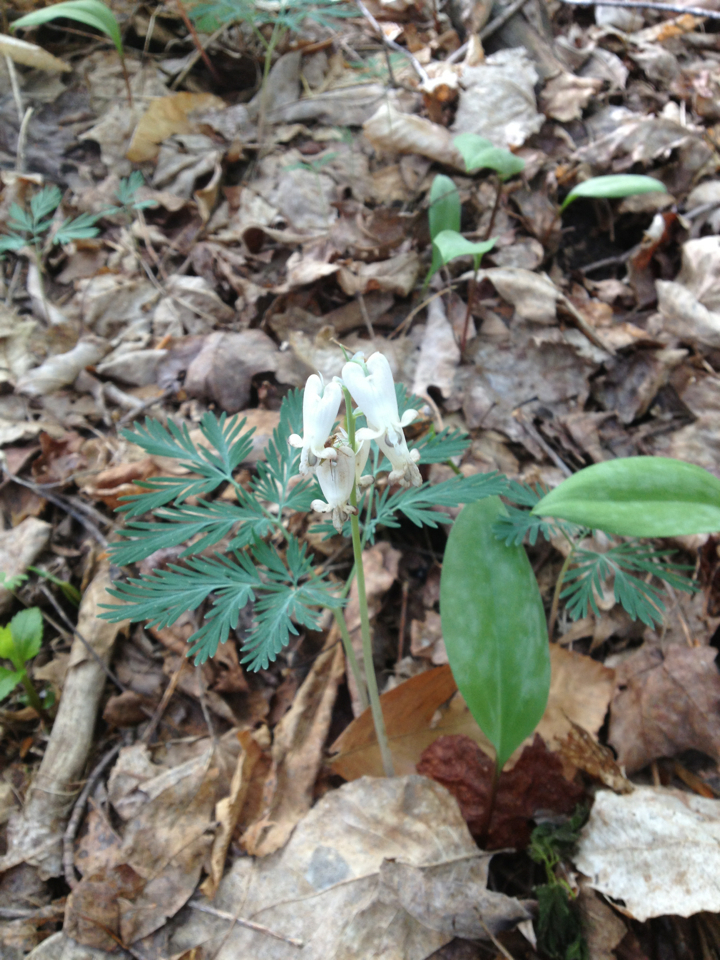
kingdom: Plantae
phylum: Tracheophyta
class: Magnoliopsida
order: Ranunculales
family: Papaveraceae
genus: Dicentra
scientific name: Dicentra canadensis
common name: Squirrel-corn
